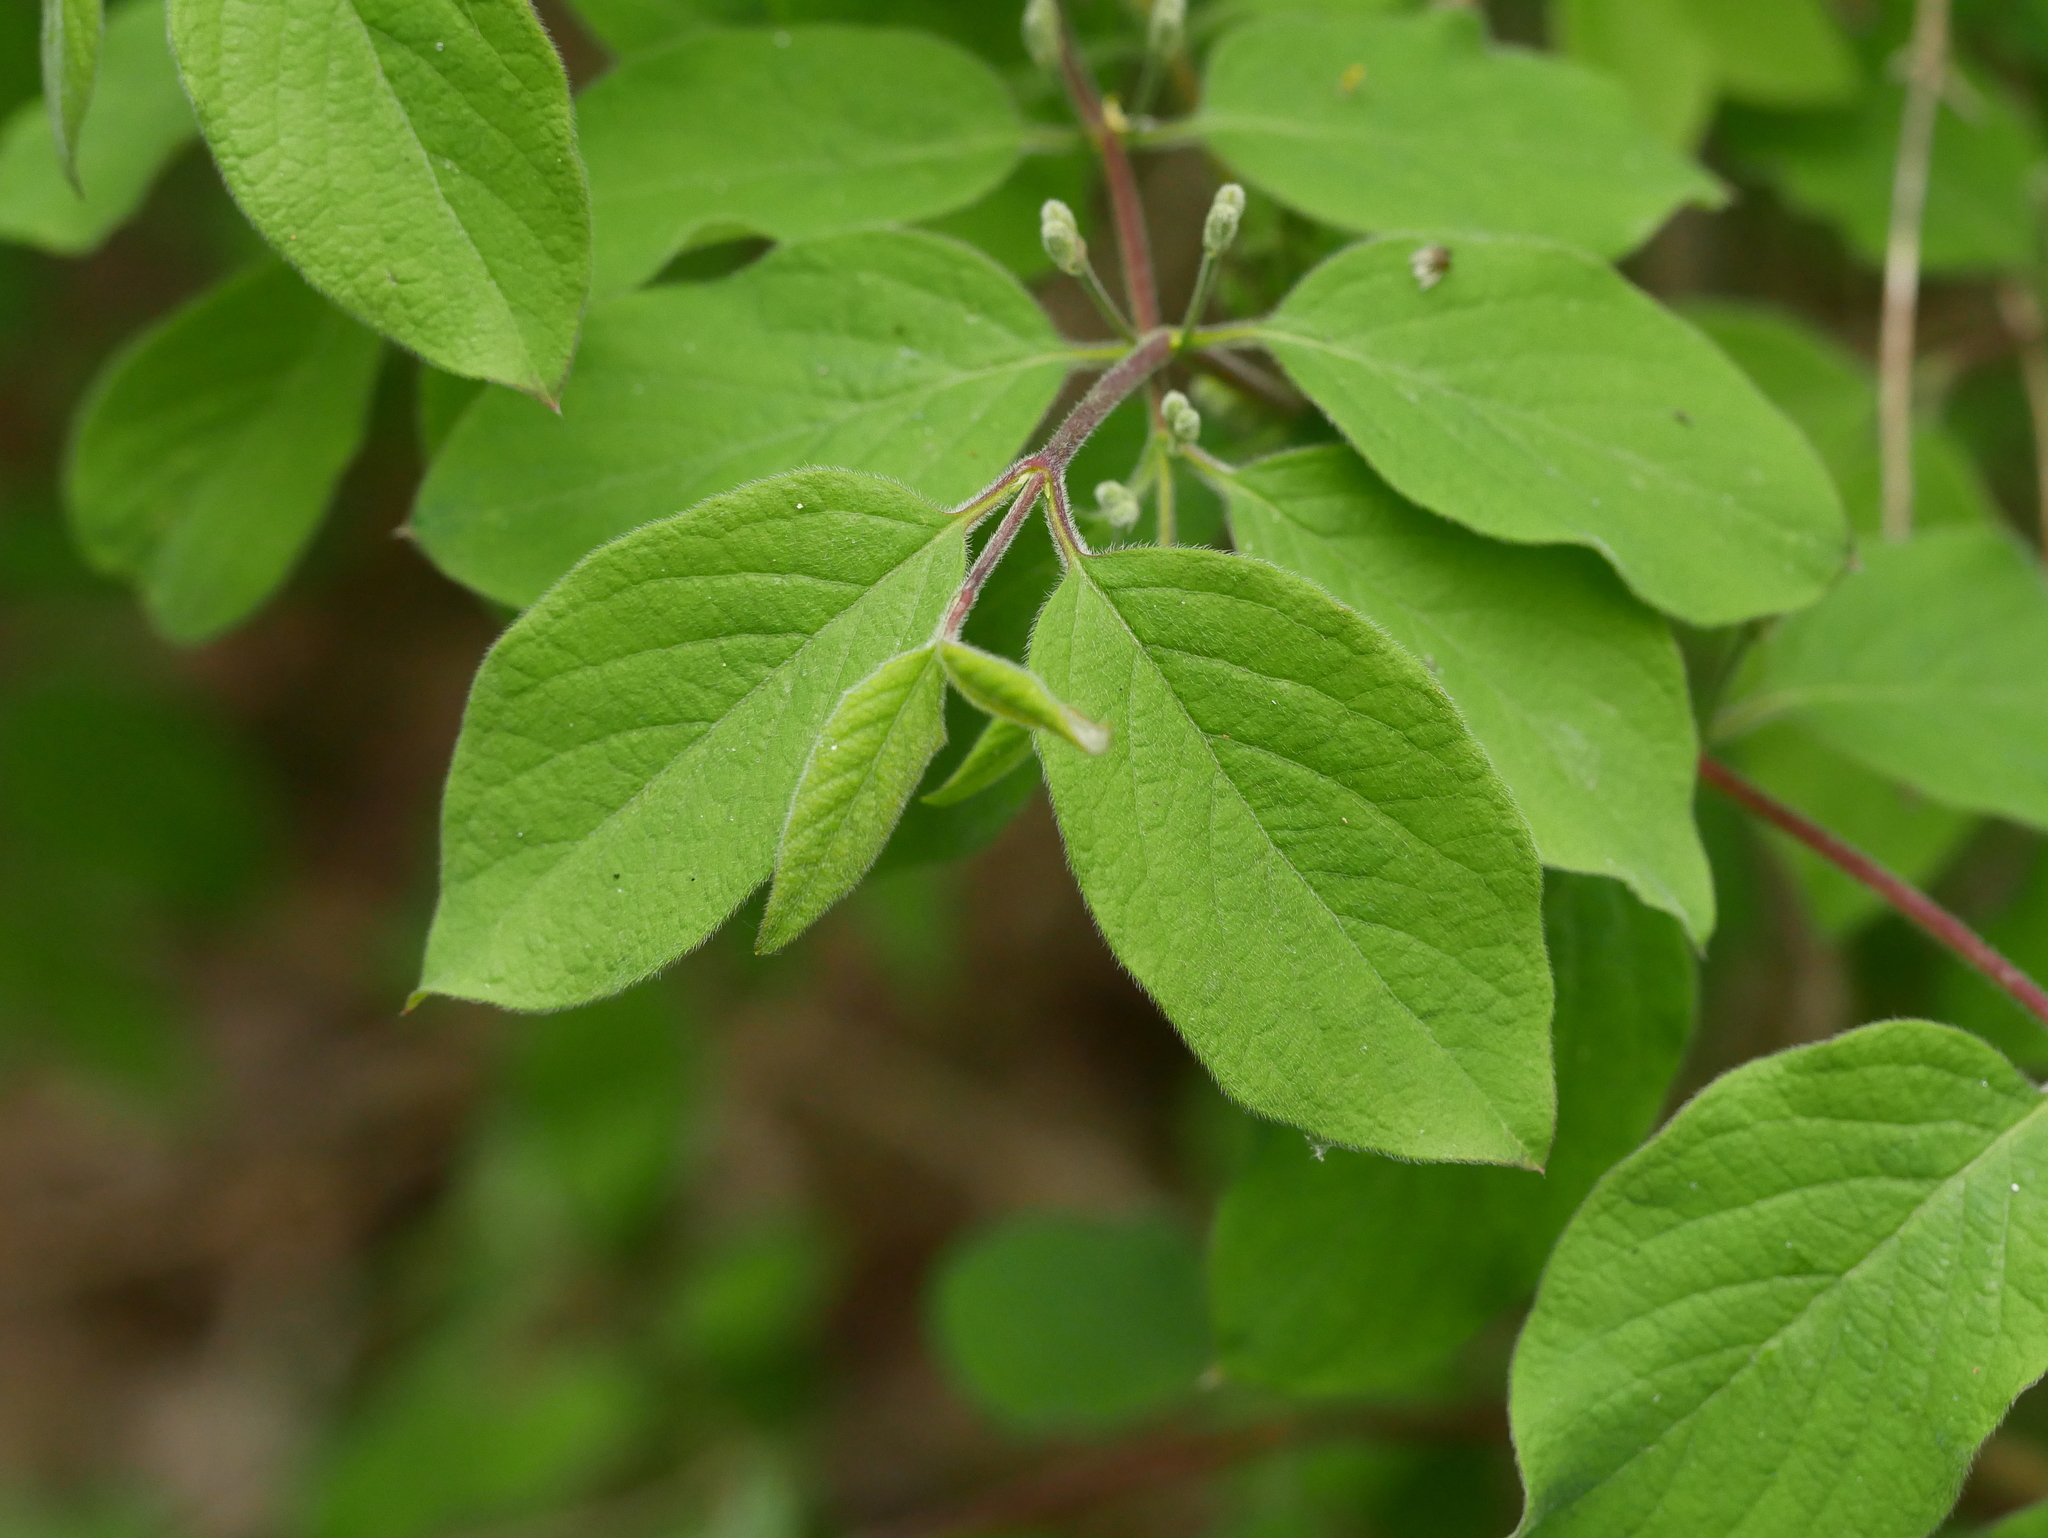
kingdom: Plantae
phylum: Tracheophyta
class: Magnoliopsida
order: Dipsacales
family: Caprifoliaceae
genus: Lonicera
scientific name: Lonicera xylosteum
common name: Fly honeysuckle
